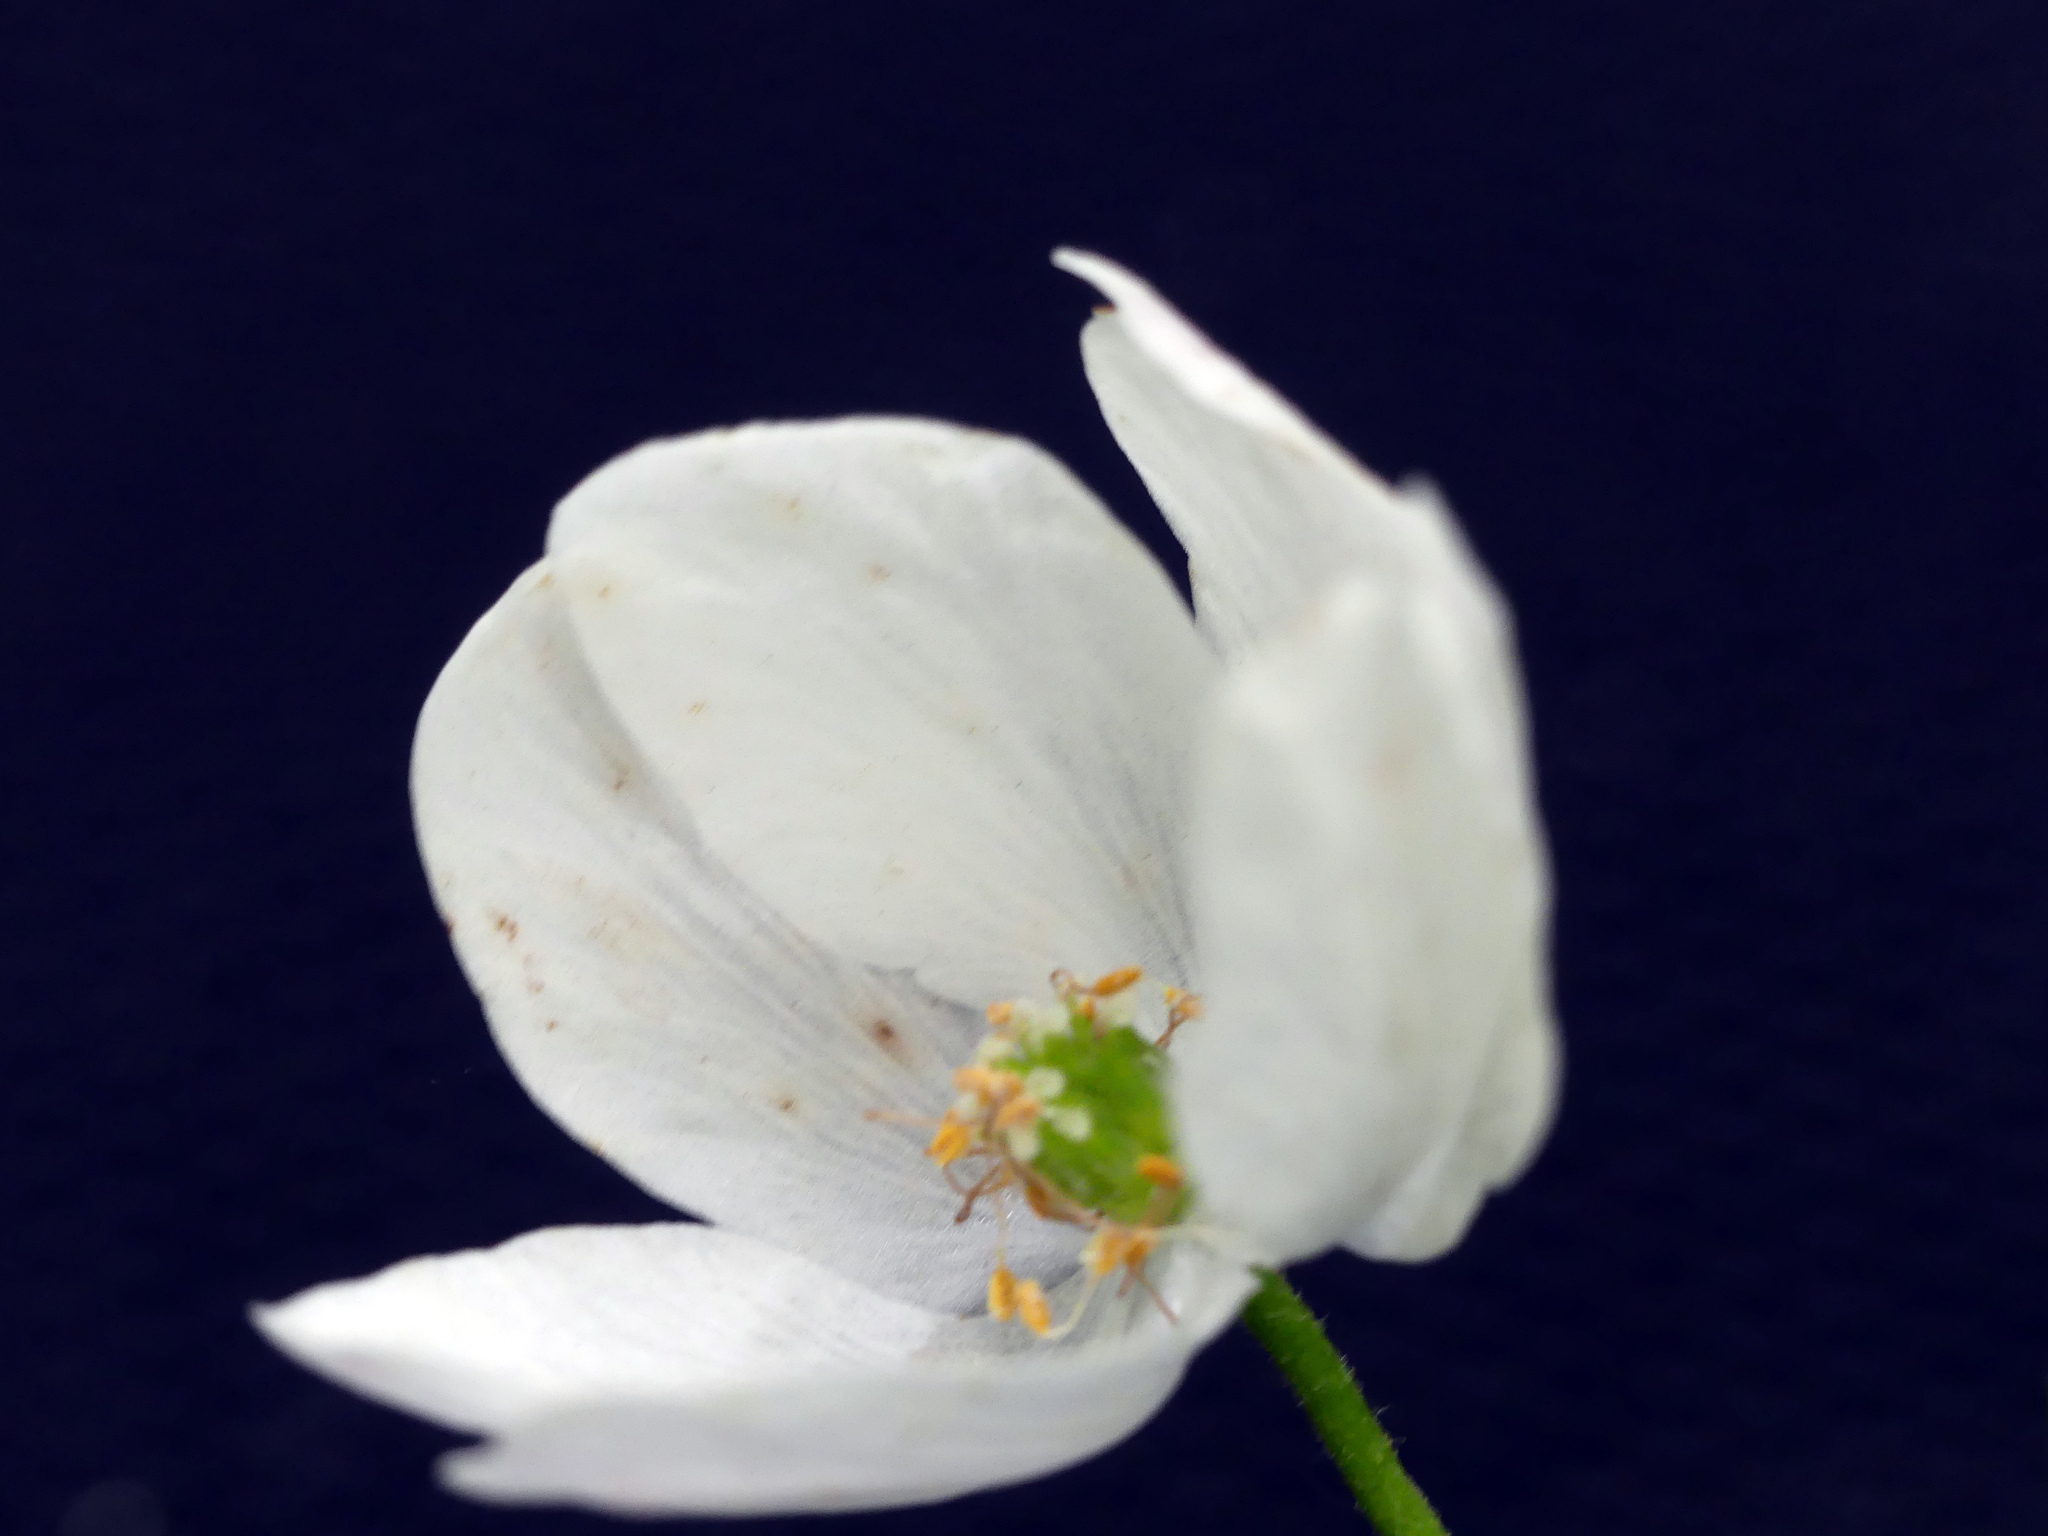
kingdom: Plantae
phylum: Tracheophyta
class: Magnoliopsida
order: Ranunculales
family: Ranunculaceae
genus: Anemone
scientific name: Anemone nemorosa
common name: Wood anemone
